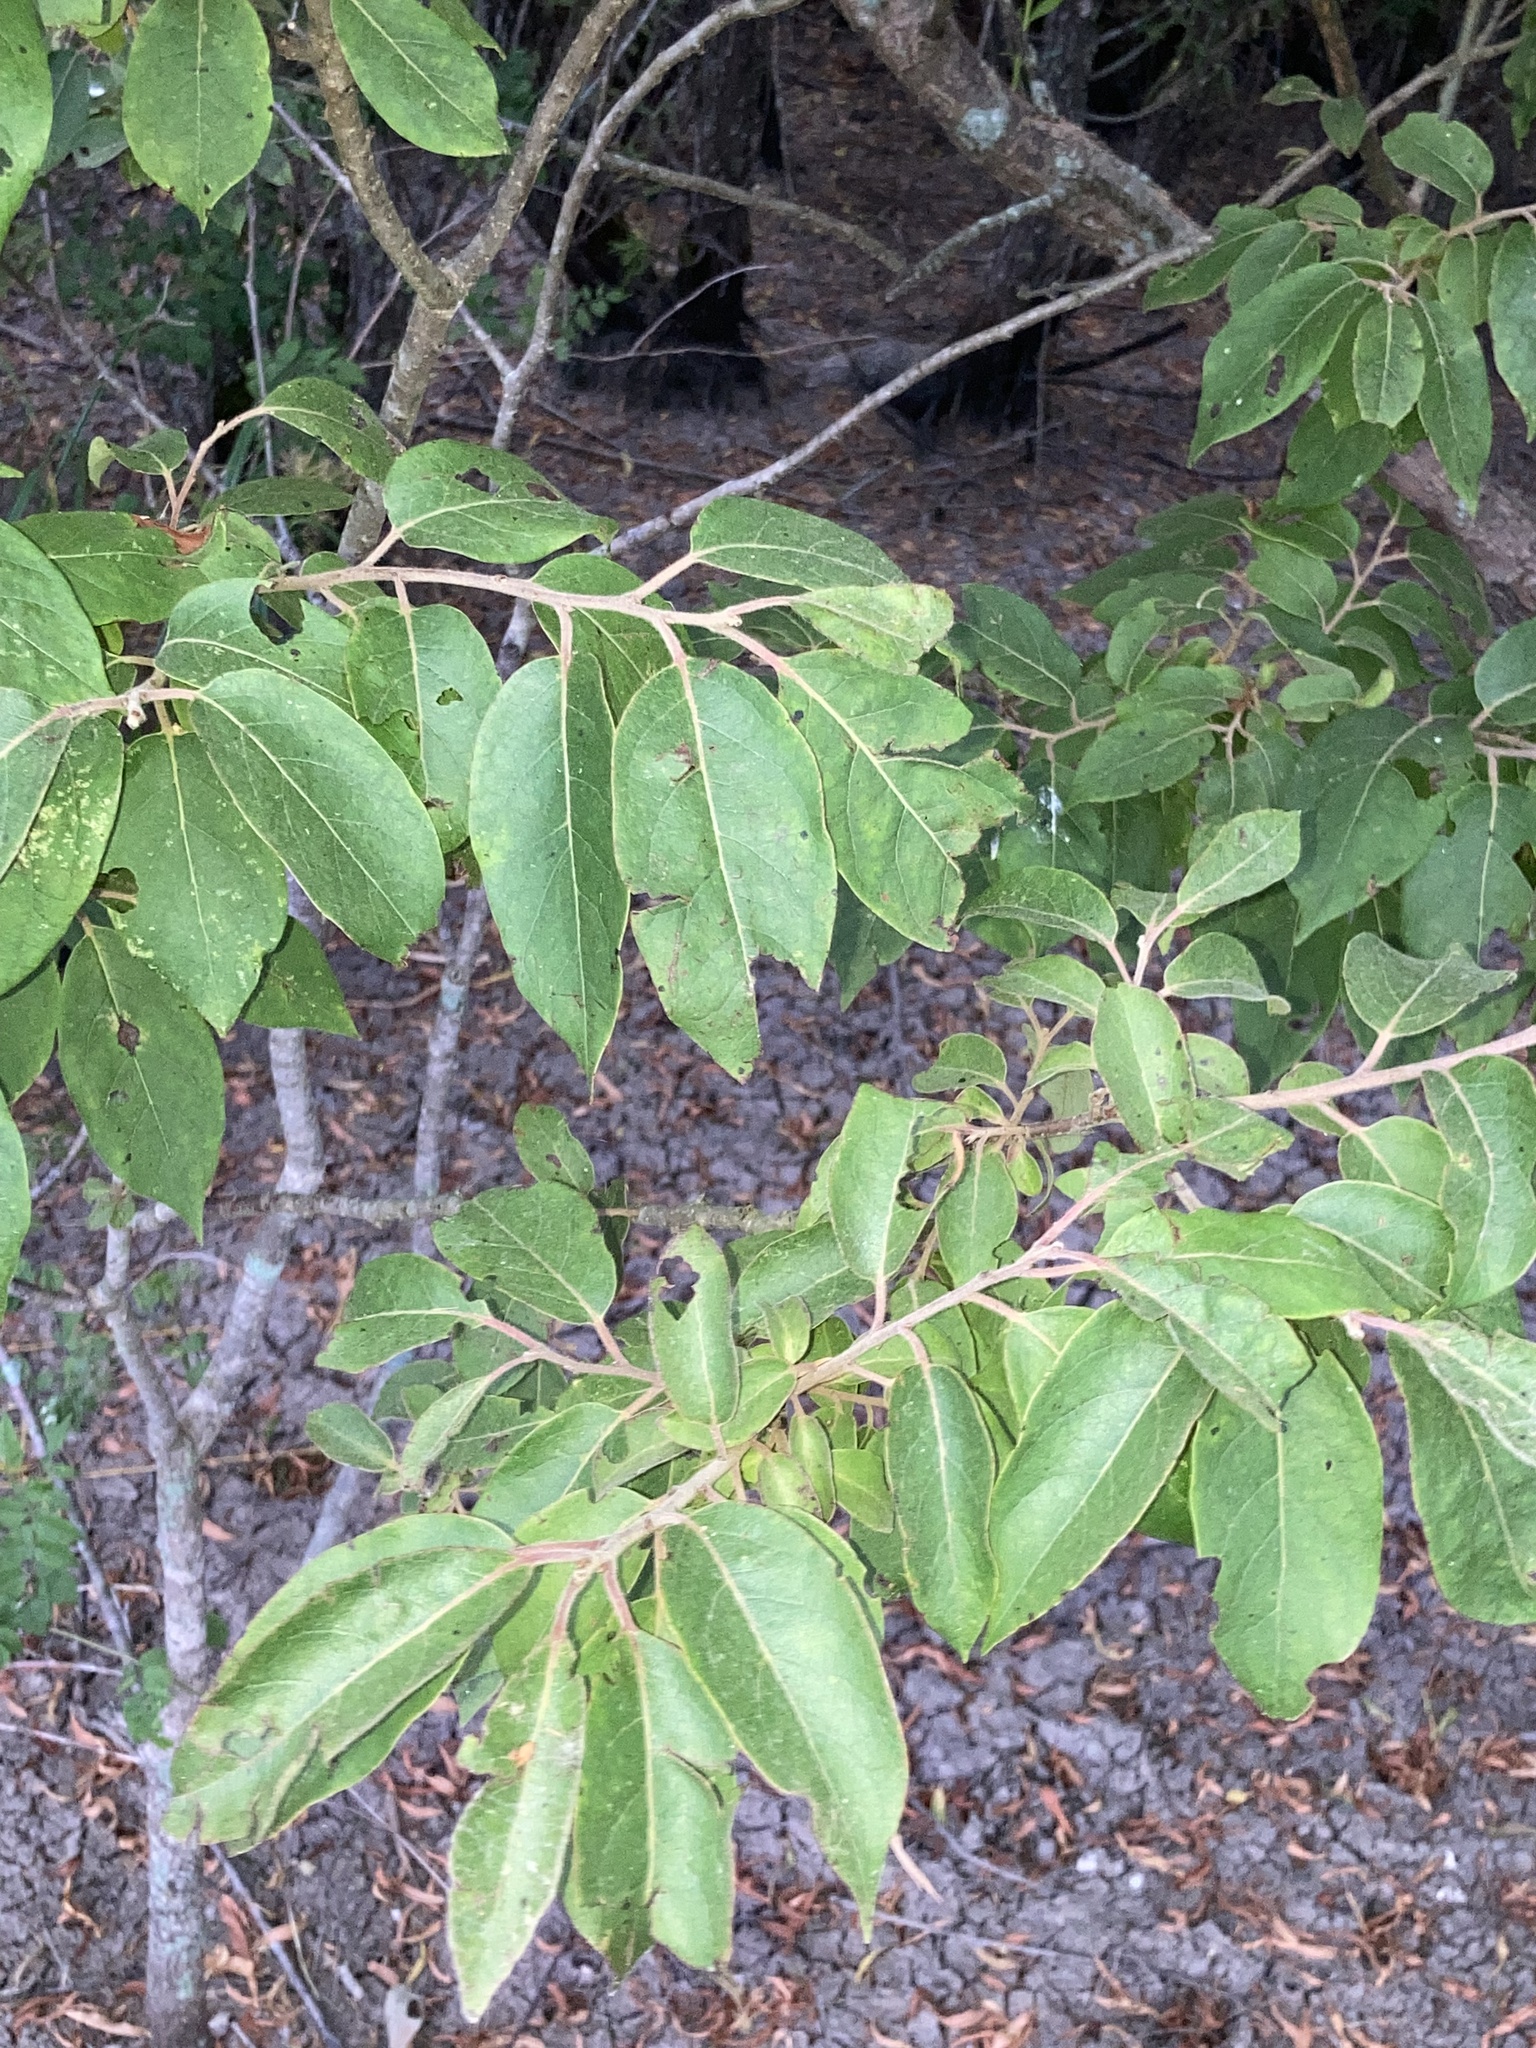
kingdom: Plantae
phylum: Tracheophyta
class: Magnoliopsida
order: Ericales
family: Ebenaceae
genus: Diospyros
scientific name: Diospyros virginiana
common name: Persimmon
